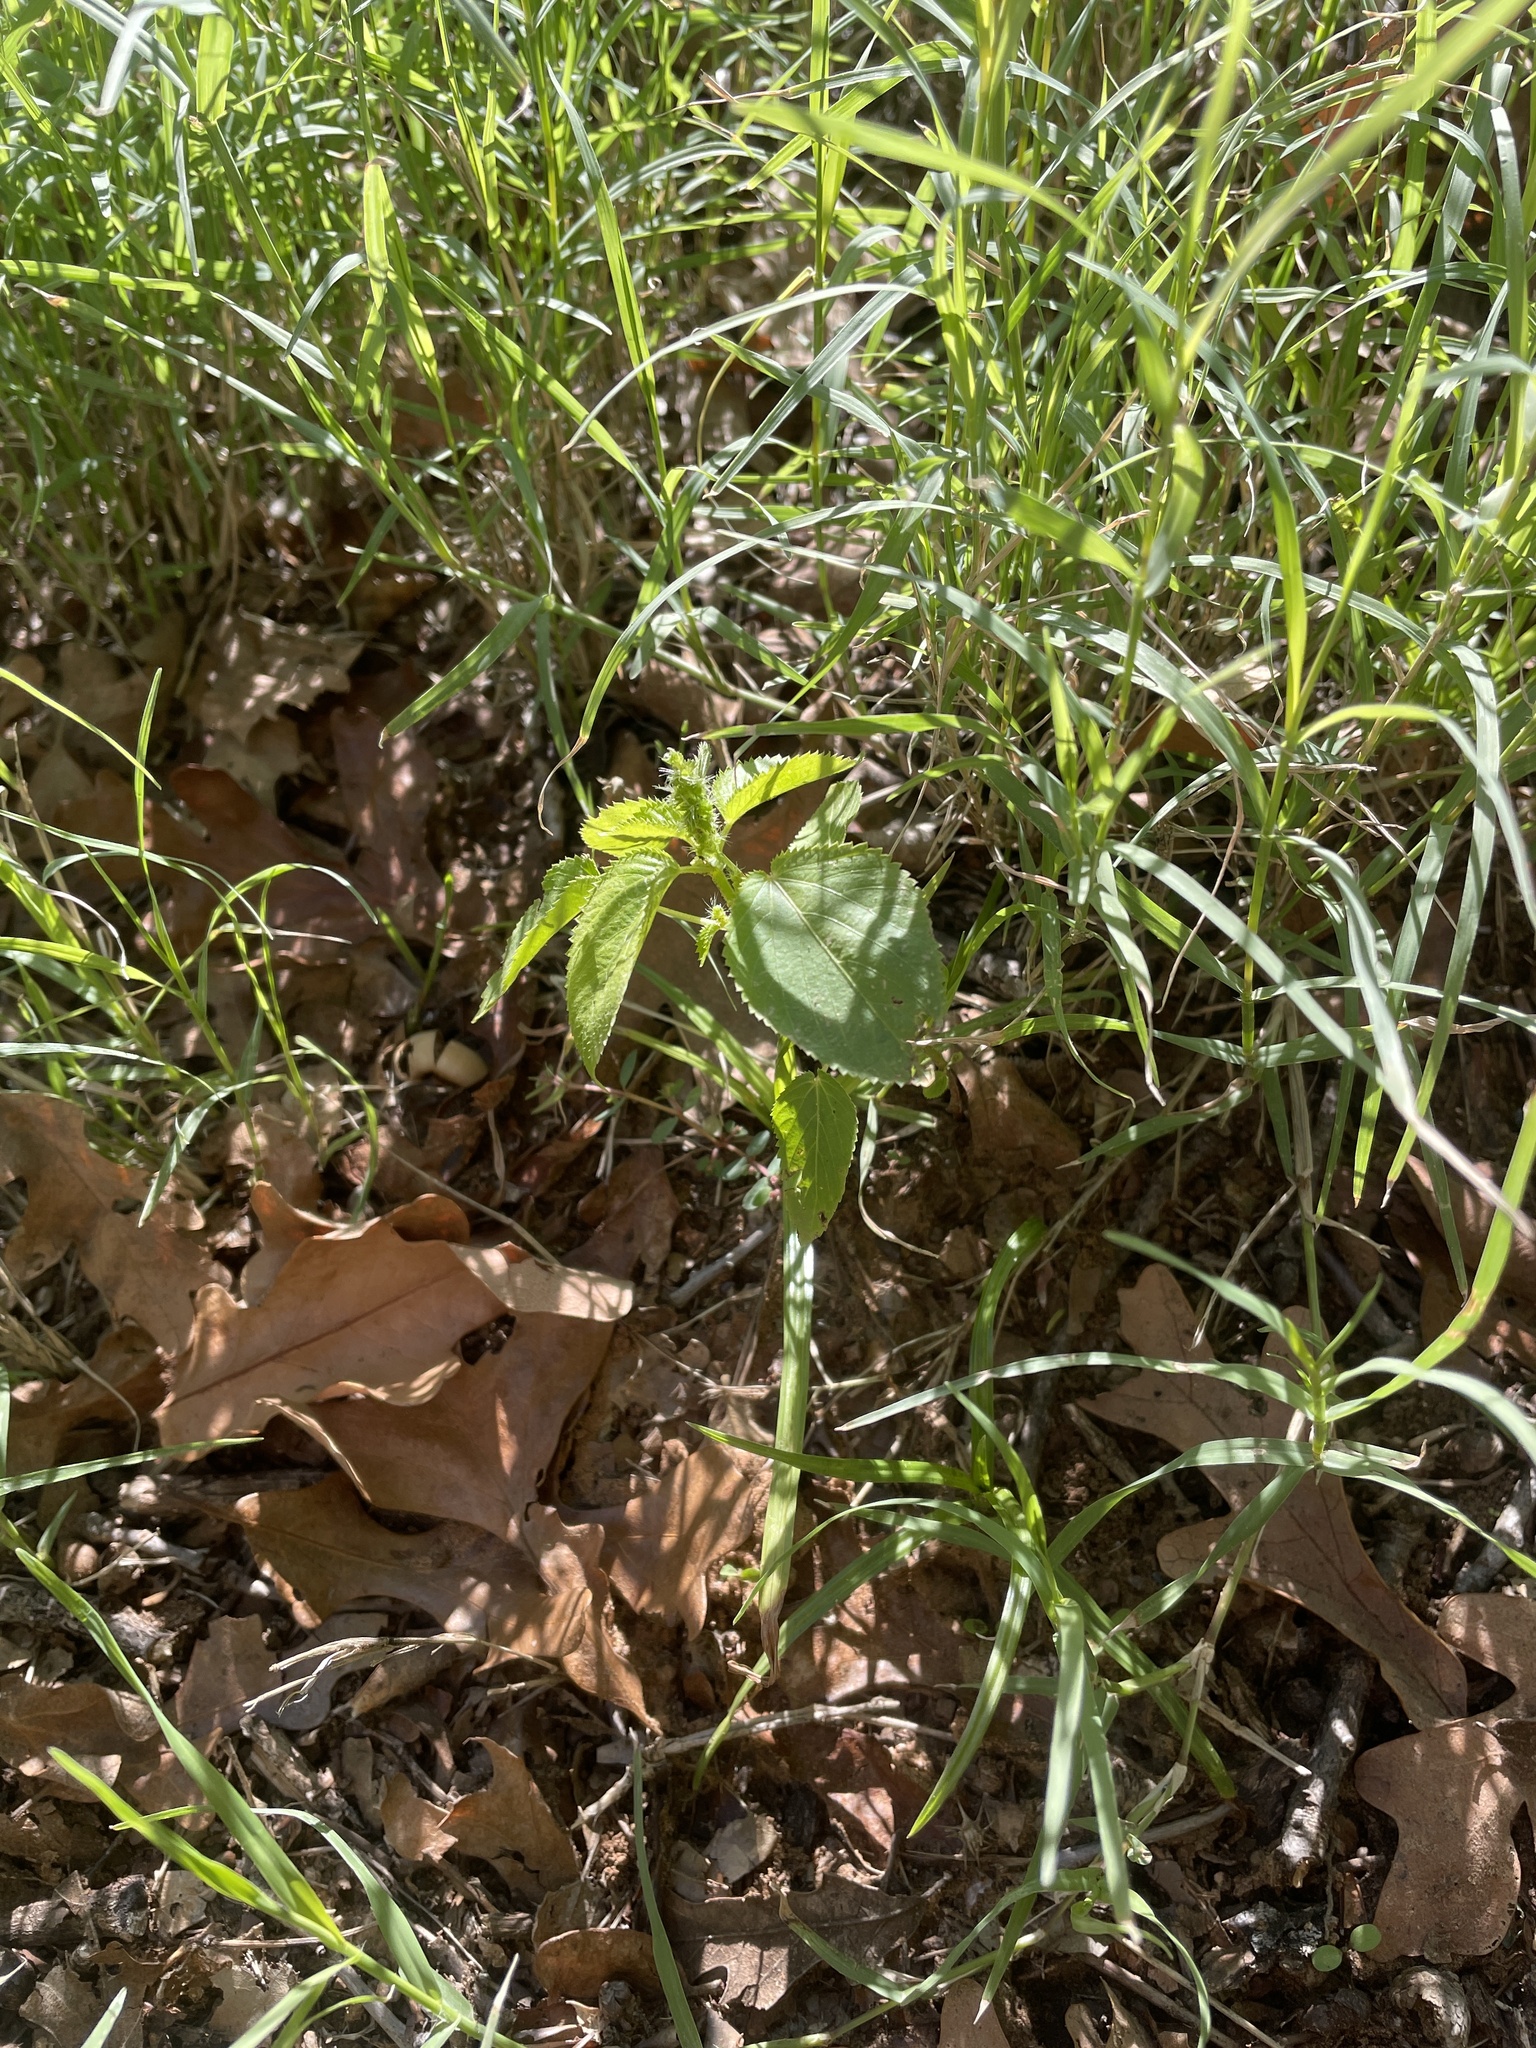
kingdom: Plantae
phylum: Tracheophyta
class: Magnoliopsida
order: Malpighiales
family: Euphorbiaceae
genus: Acalypha
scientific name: Acalypha ostryifolia
